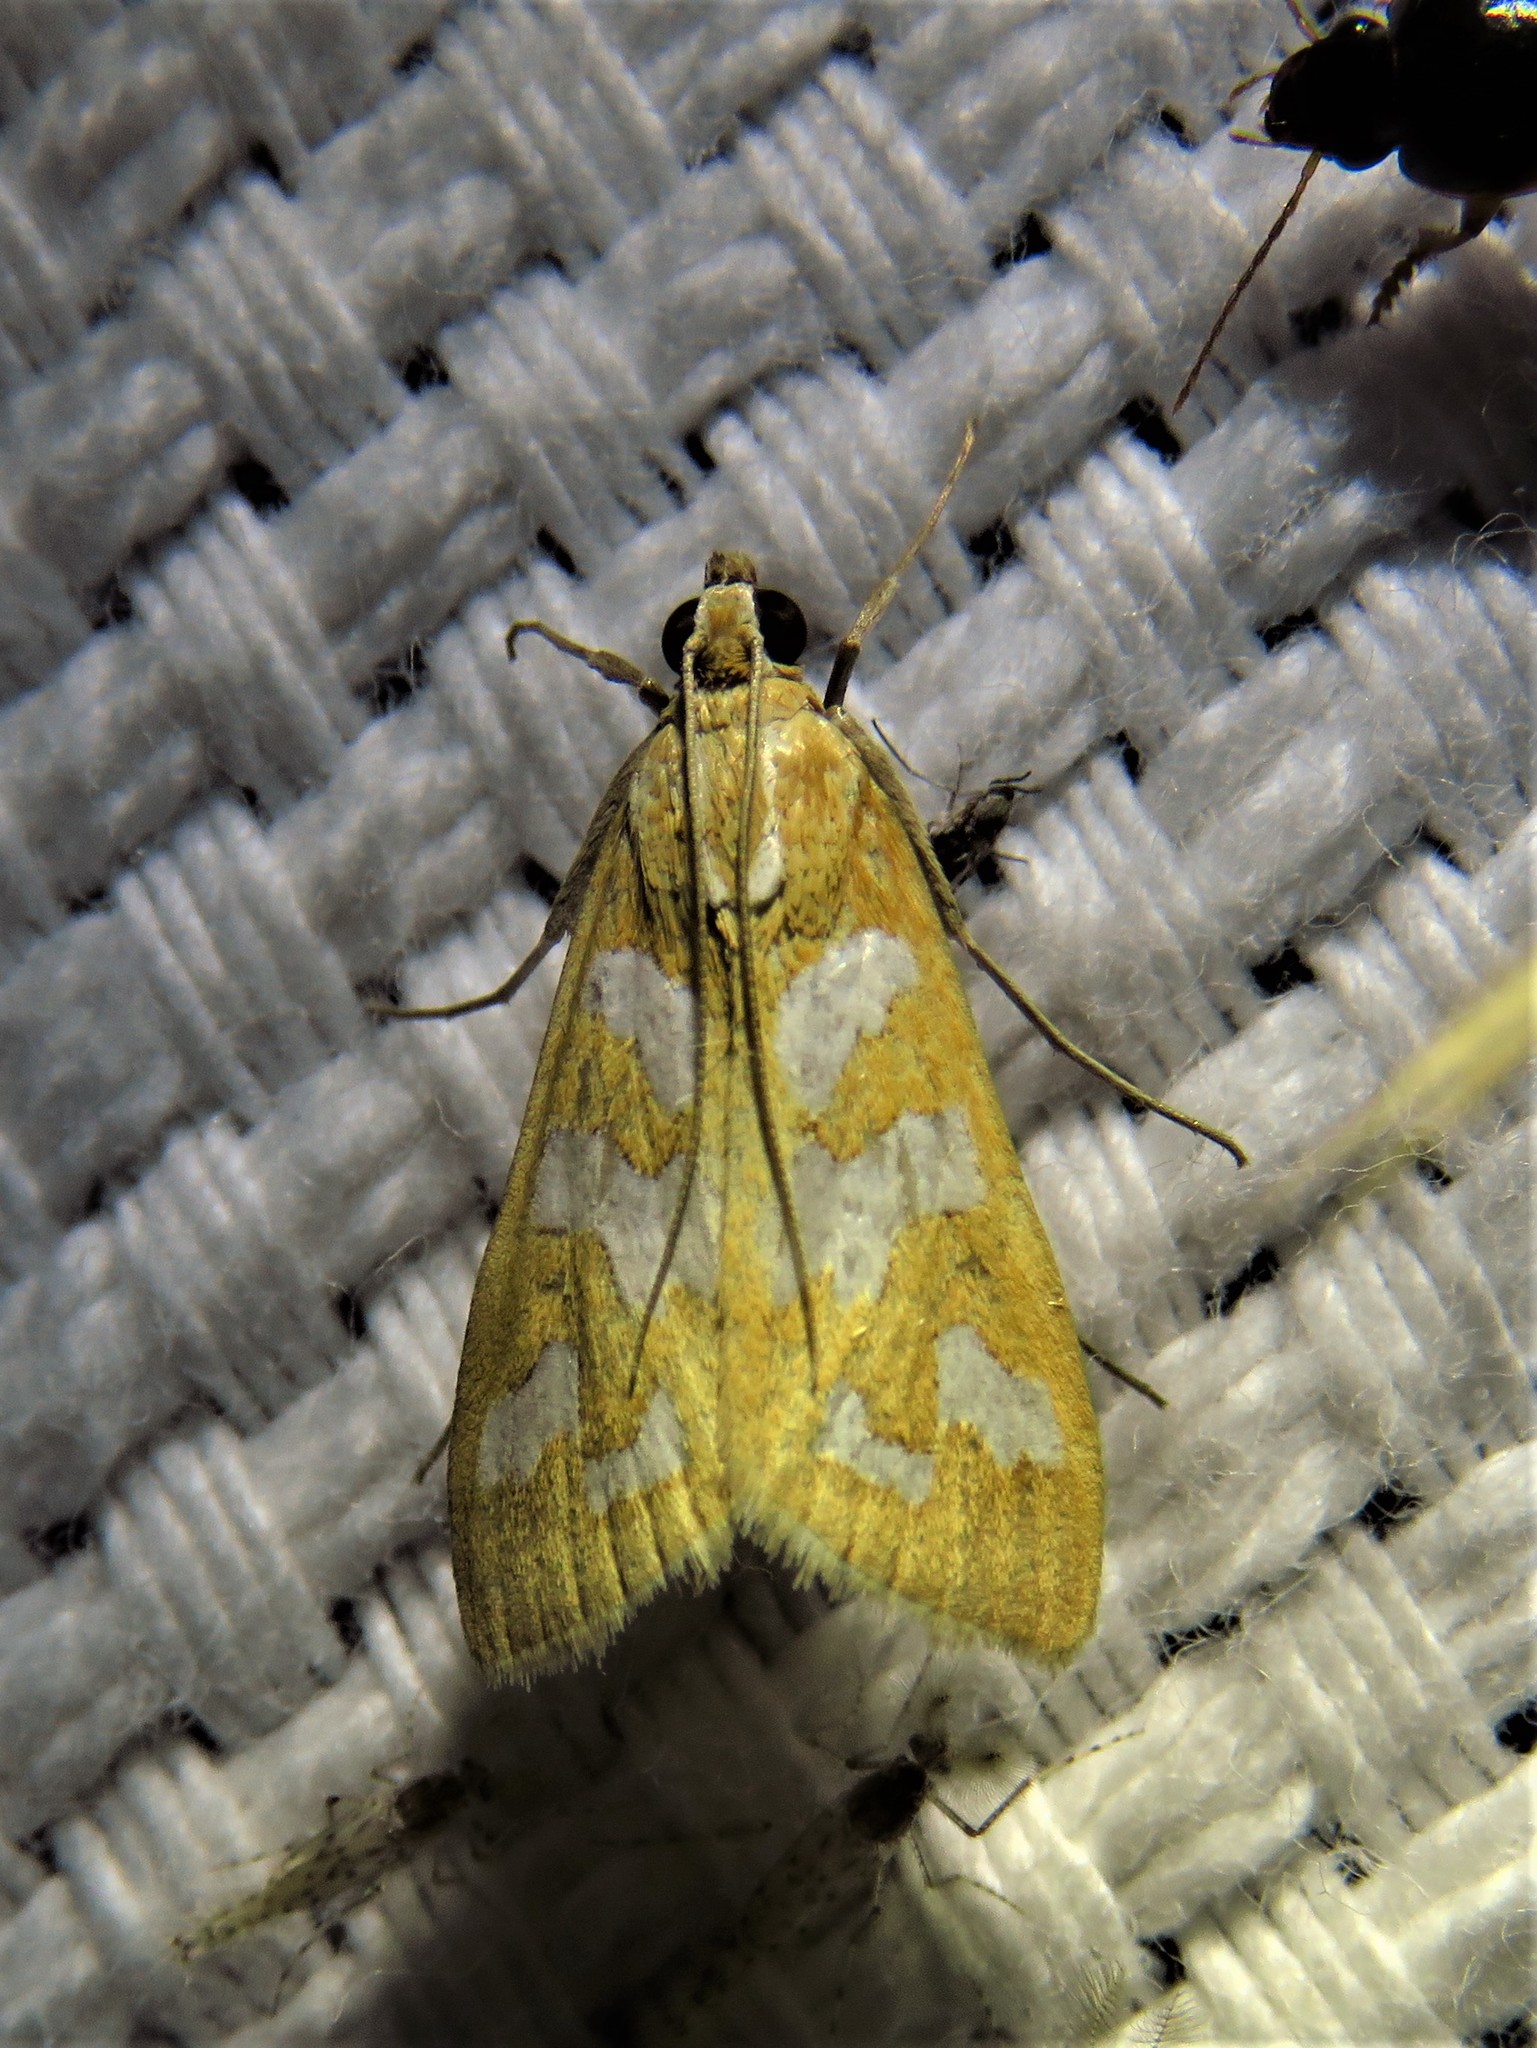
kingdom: Animalia
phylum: Arthropoda
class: Insecta
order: Lepidoptera
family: Crambidae
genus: Diastictis
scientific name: Diastictis fracturalis
